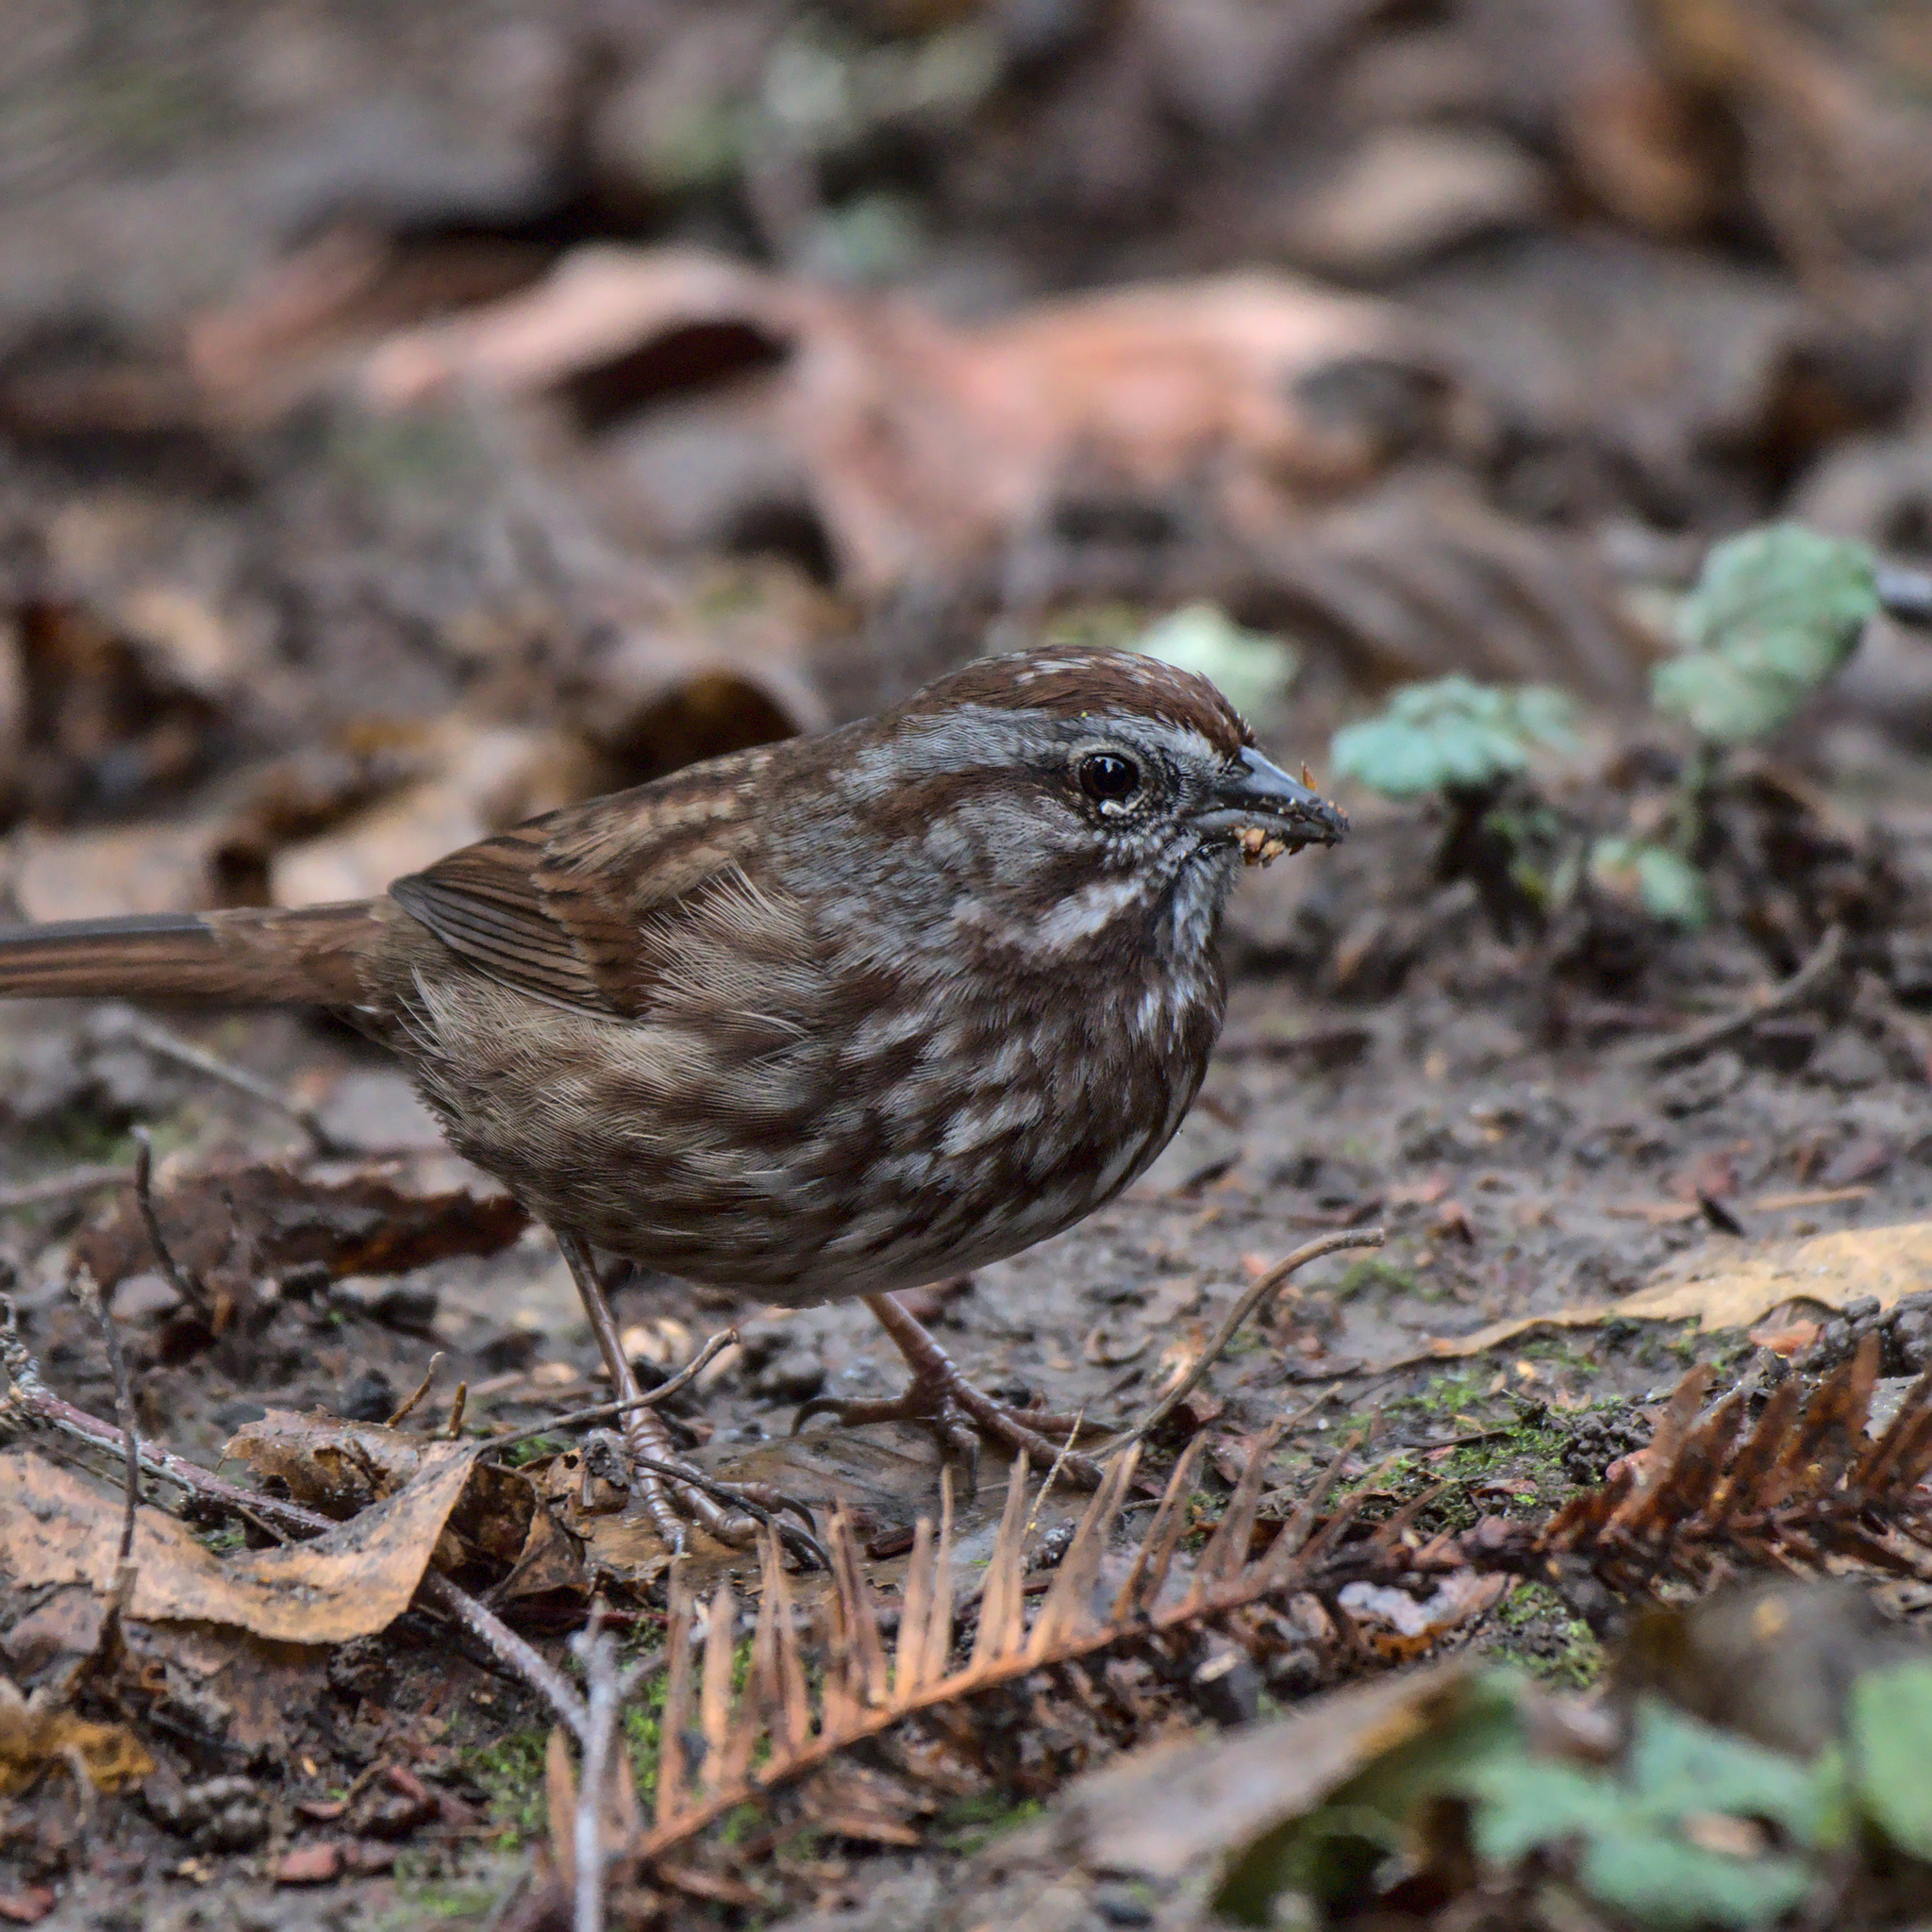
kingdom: Animalia
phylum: Chordata
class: Aves
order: Passeriformes
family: Passerellidae
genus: Melospiza
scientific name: Melospiza melodia
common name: Song sparrow
